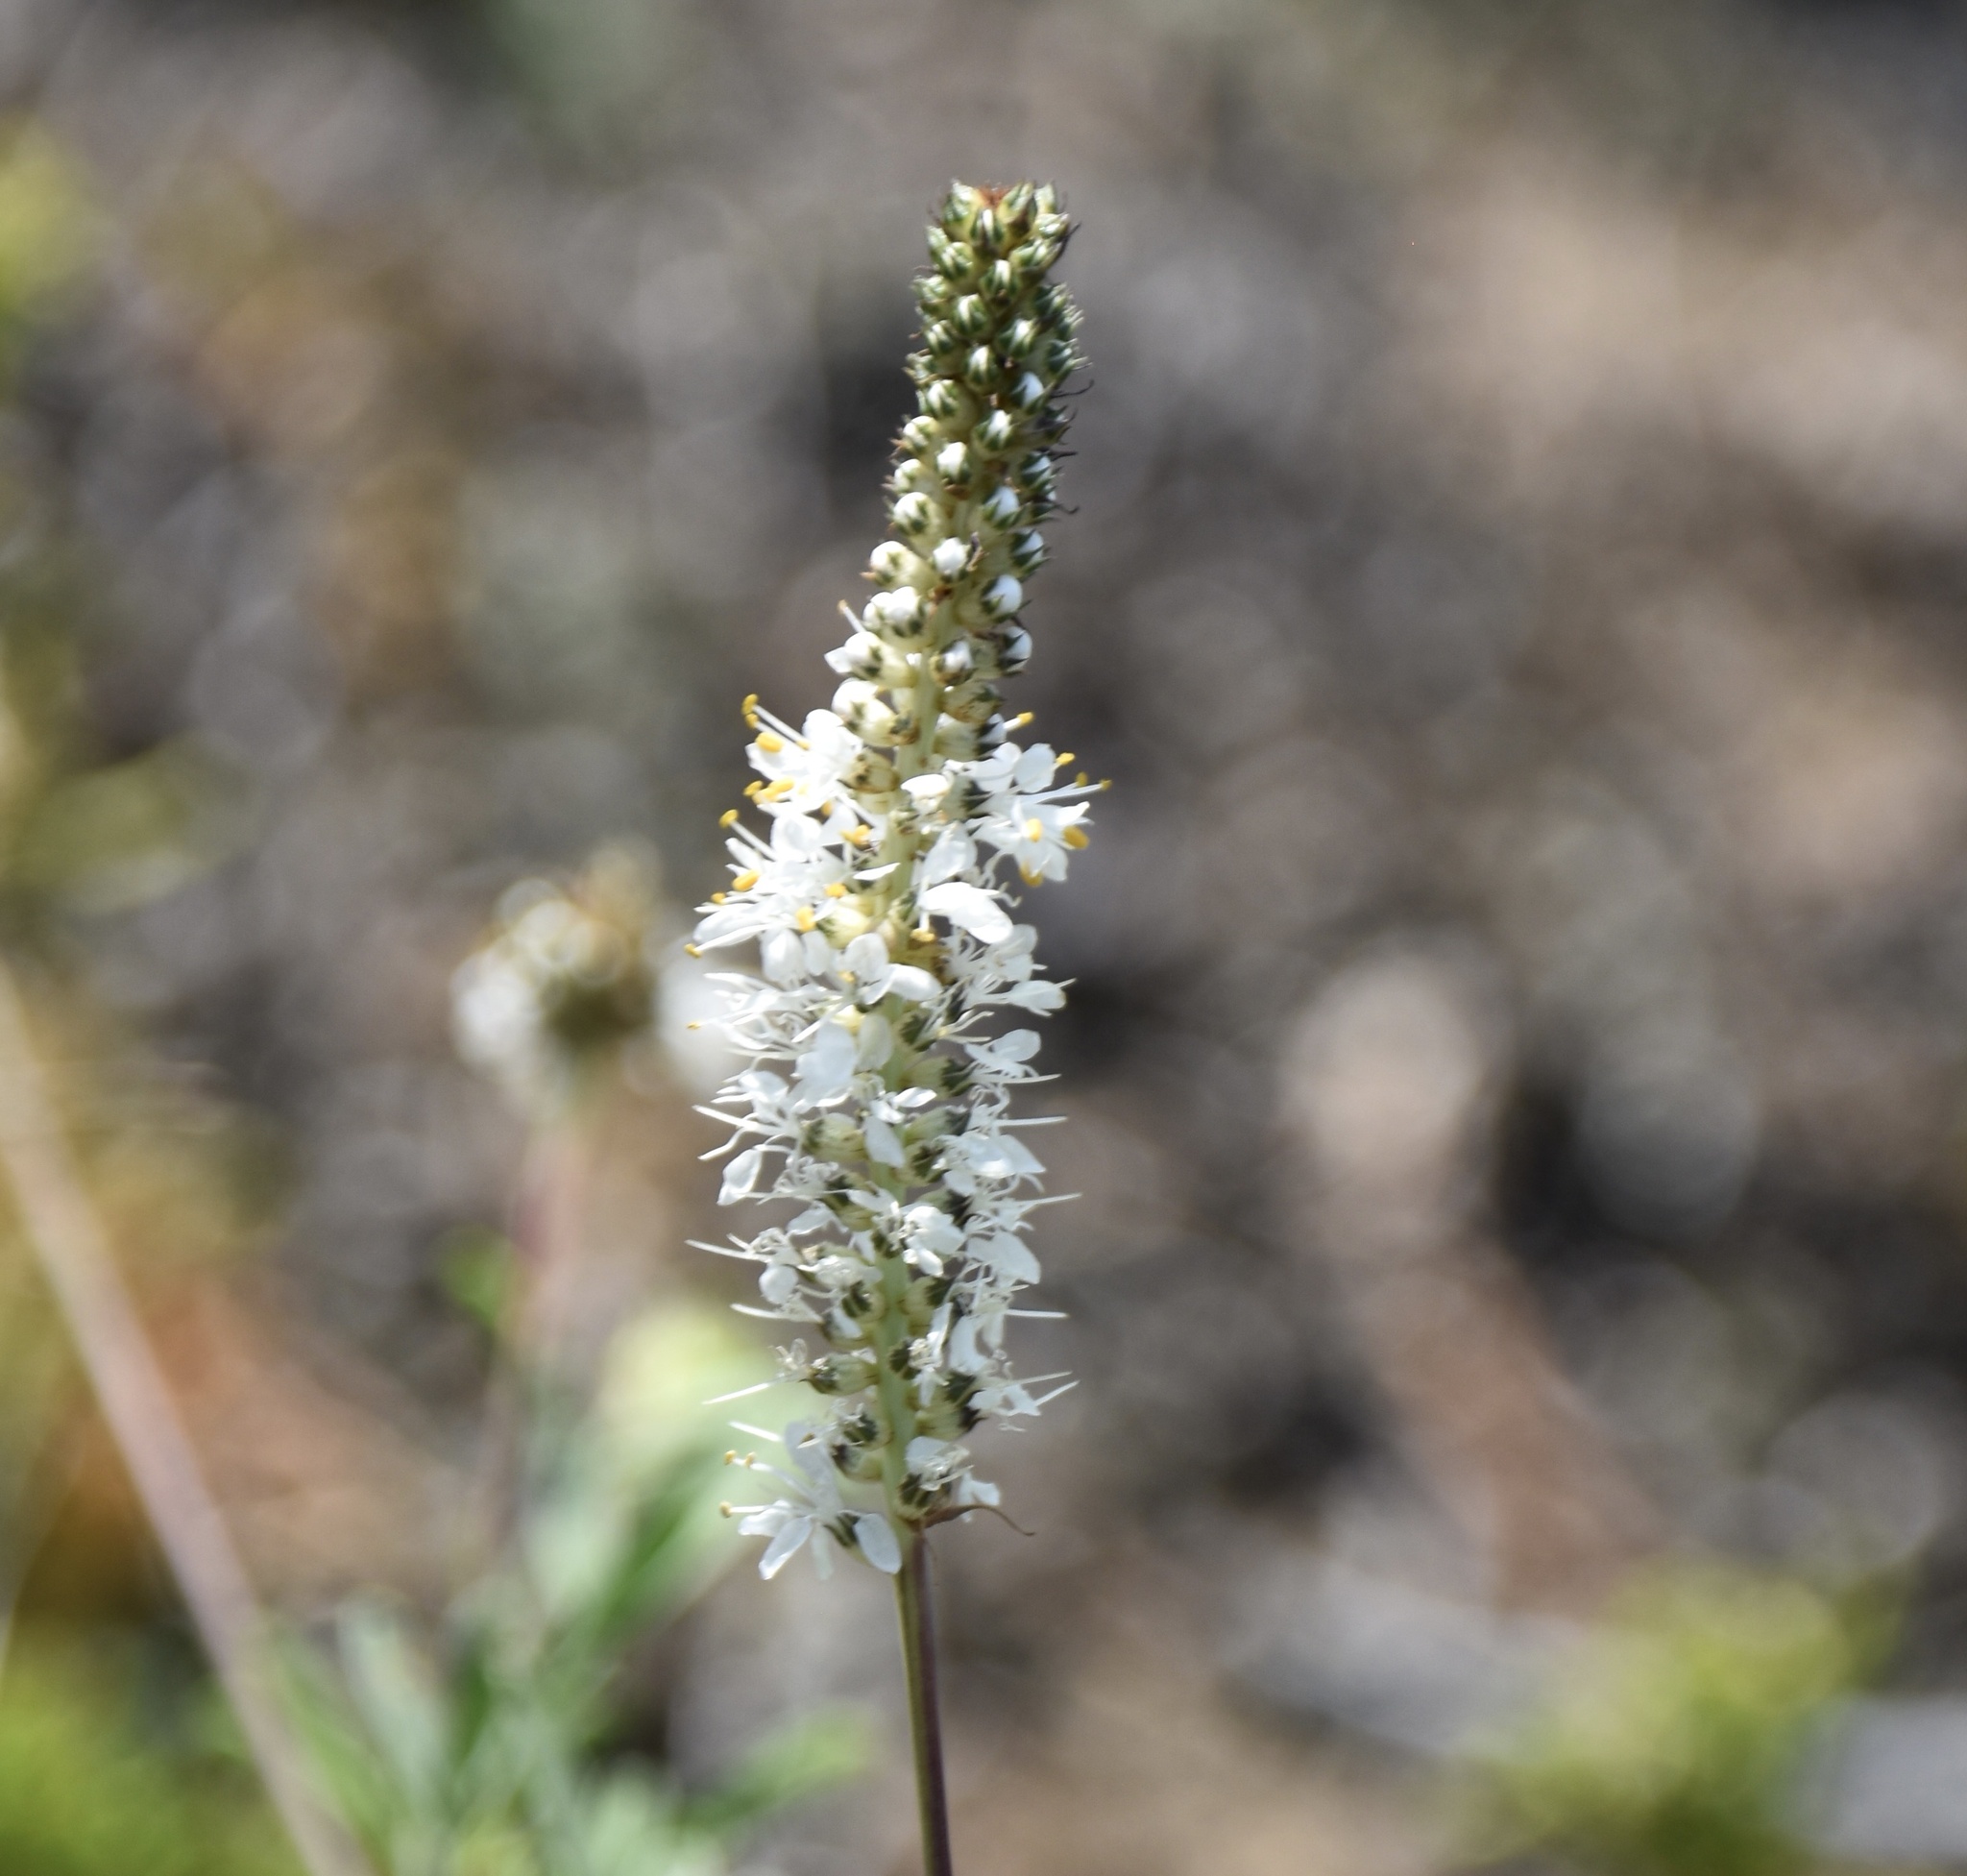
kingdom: Plantae
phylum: Tracheophyta
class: Magnoliopsida
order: Fabales
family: Fabaceae
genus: Dalea
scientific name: Dalea candida
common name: White prairie-clover
